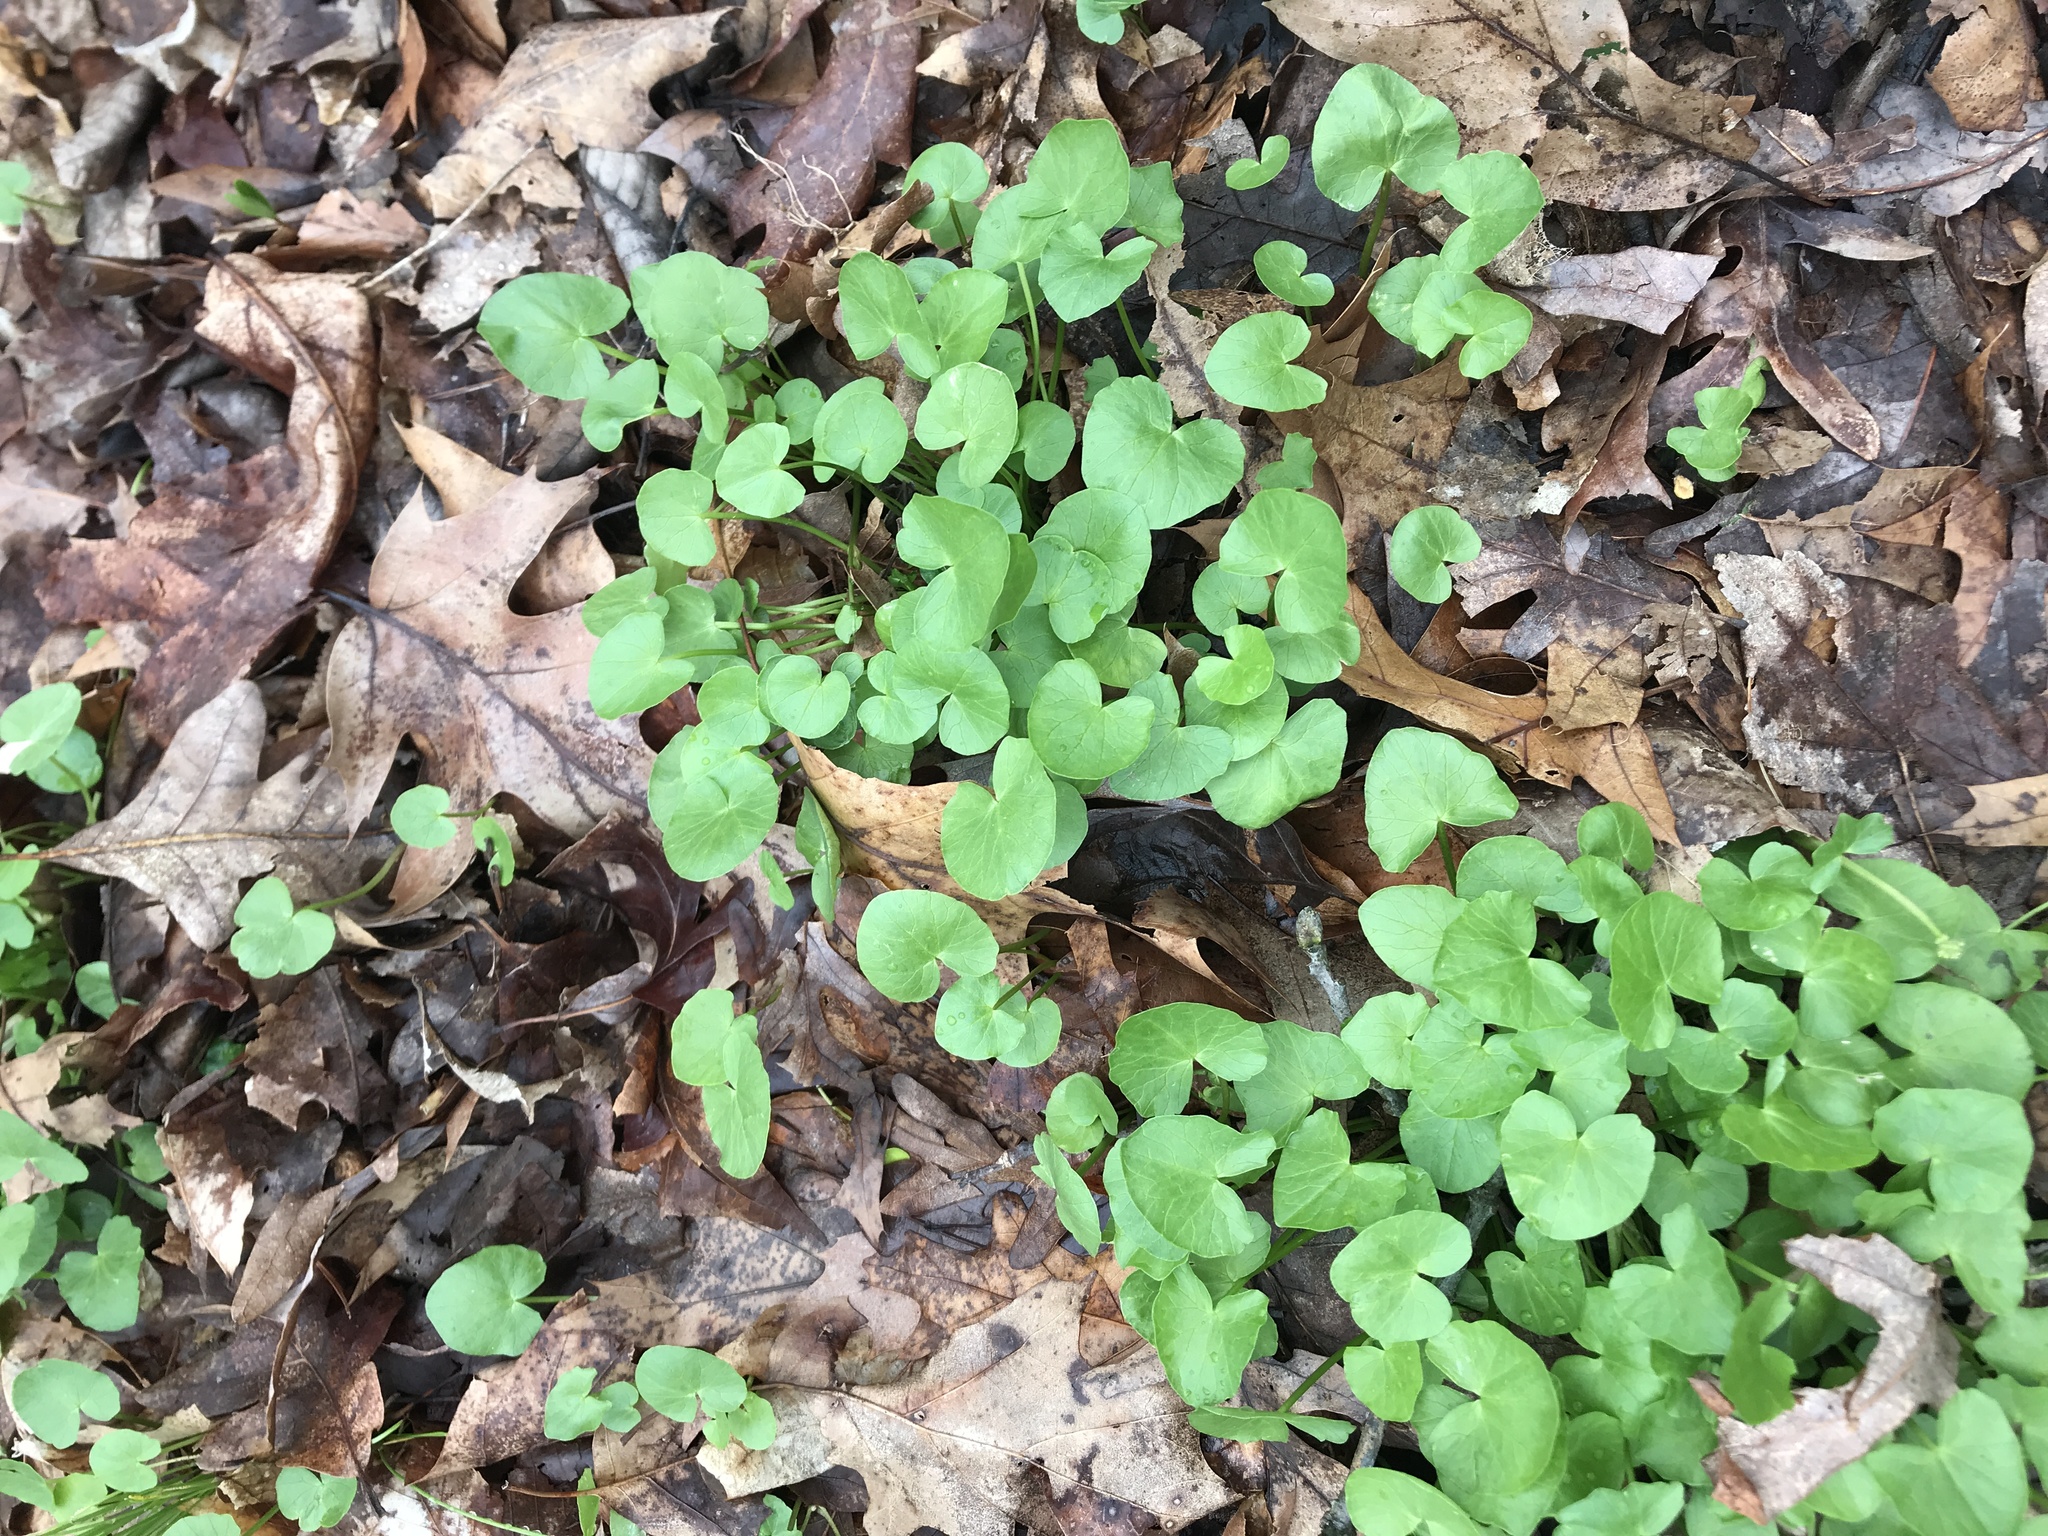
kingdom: Plantae
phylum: Tracheophyta
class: Magnoliopsida
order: Ranunculales
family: Ranunculaceae
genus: Ficaria
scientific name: Ficaria verna
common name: Lesser celandine
